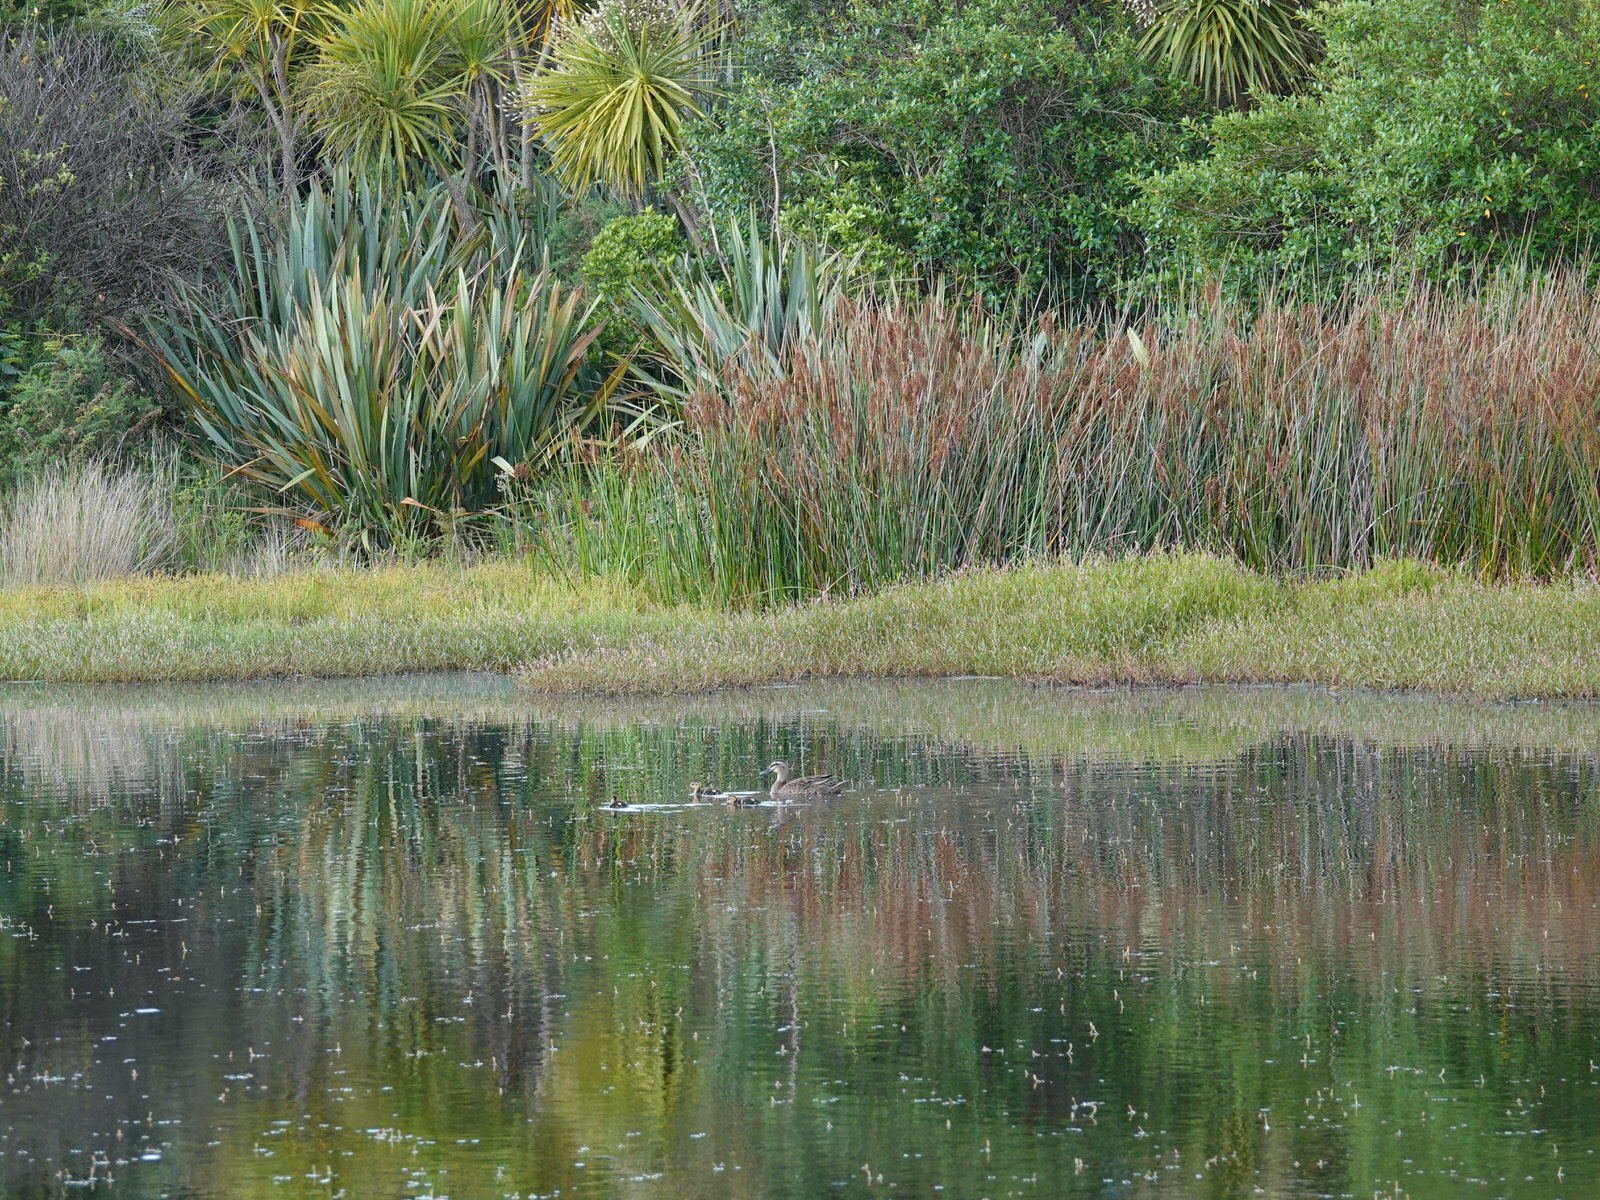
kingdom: Animalia
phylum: Chordata
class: Aves
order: Anseriformes
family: Anatidae
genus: Anas
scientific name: Anas
